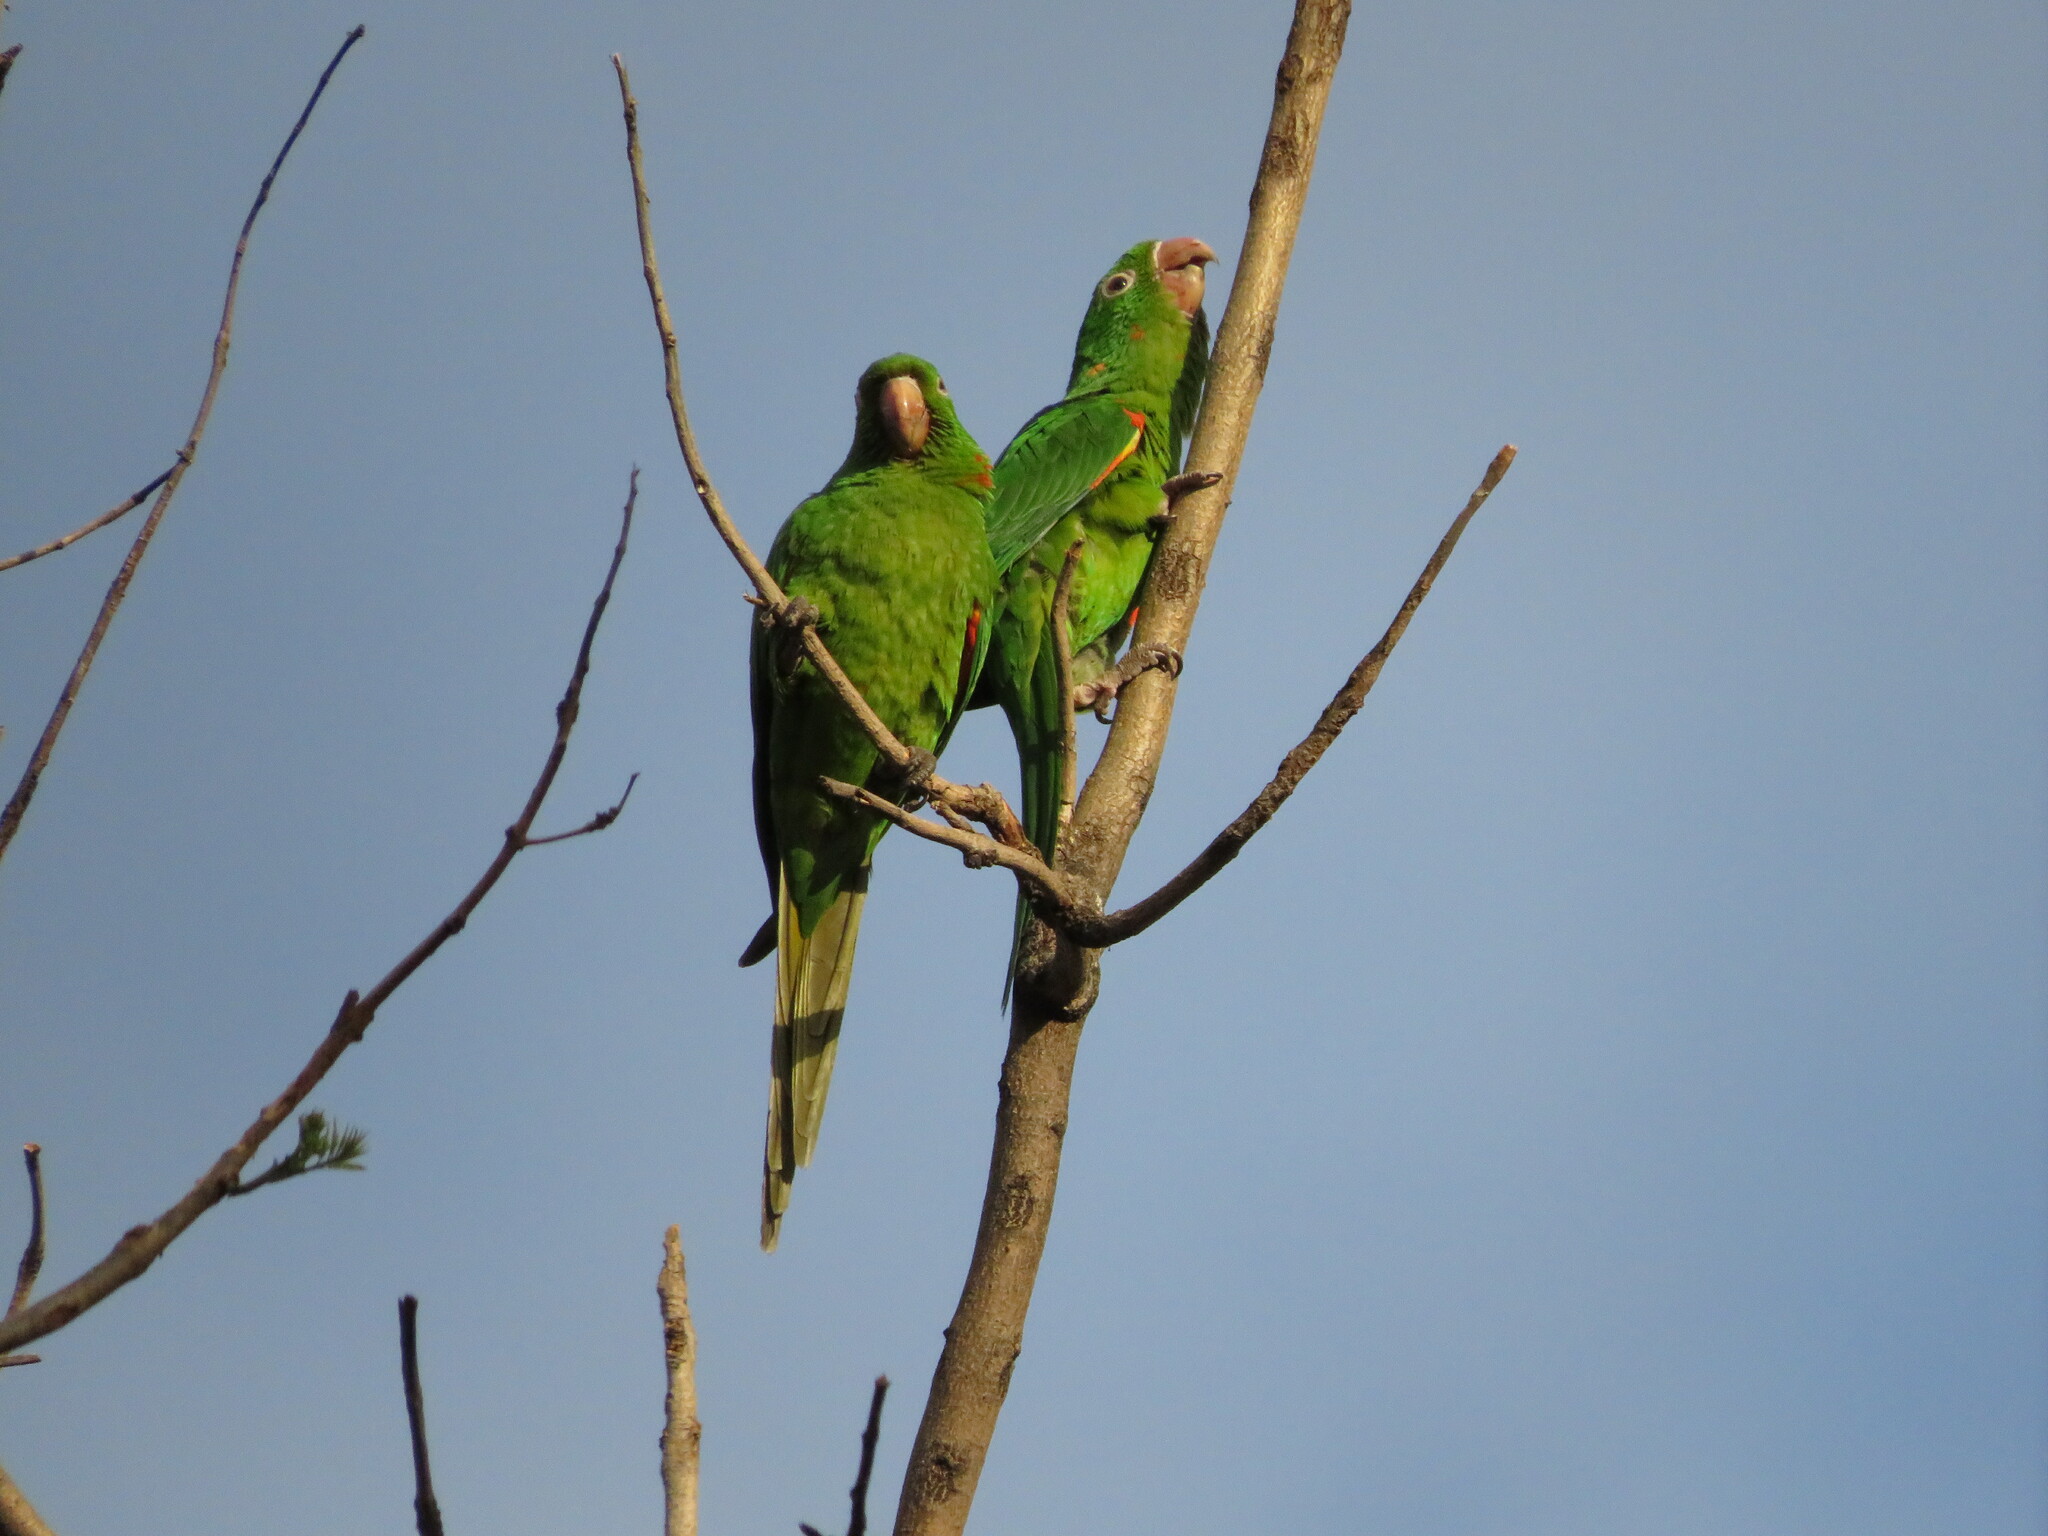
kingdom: Animalia
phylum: Chordata
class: Aves
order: Psittaciformes
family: Psittacidae
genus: Aratinga
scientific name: Aratinga leucophthalma
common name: White-eyed parakeet
